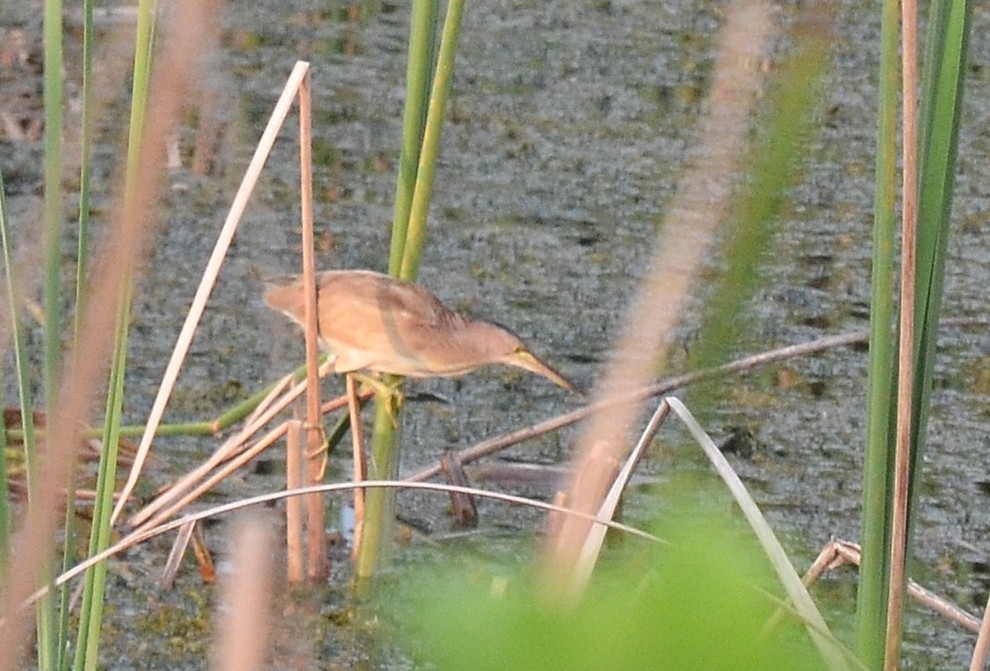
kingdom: Animalia
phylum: Chordata
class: Aves
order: Pelecaniformes
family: Ardeidae
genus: Ixobrychus
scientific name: Ixobrychus sinensis
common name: Yellow bittern
